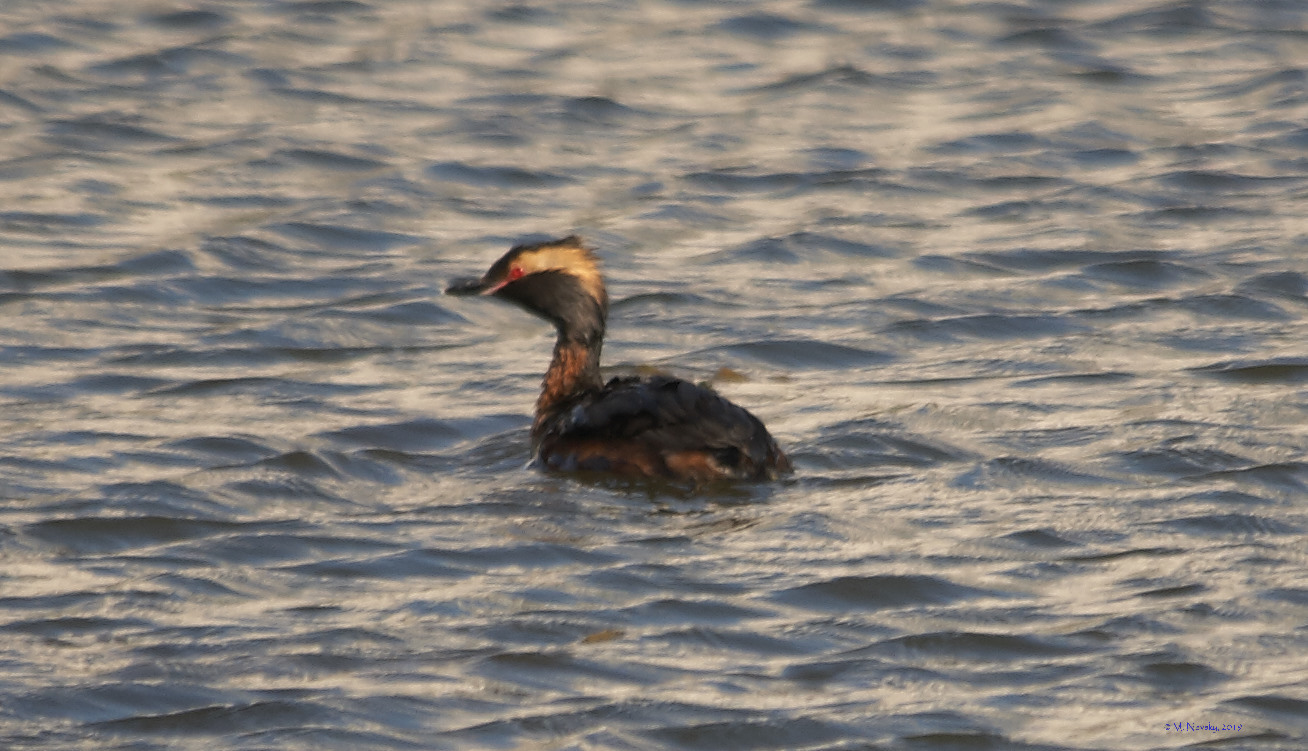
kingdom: Animalia
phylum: Chordata
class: Aves
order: Podicipediformes
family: Podicipedidae
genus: Podiceps
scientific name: Podiceps auritus
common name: Horned grebe
